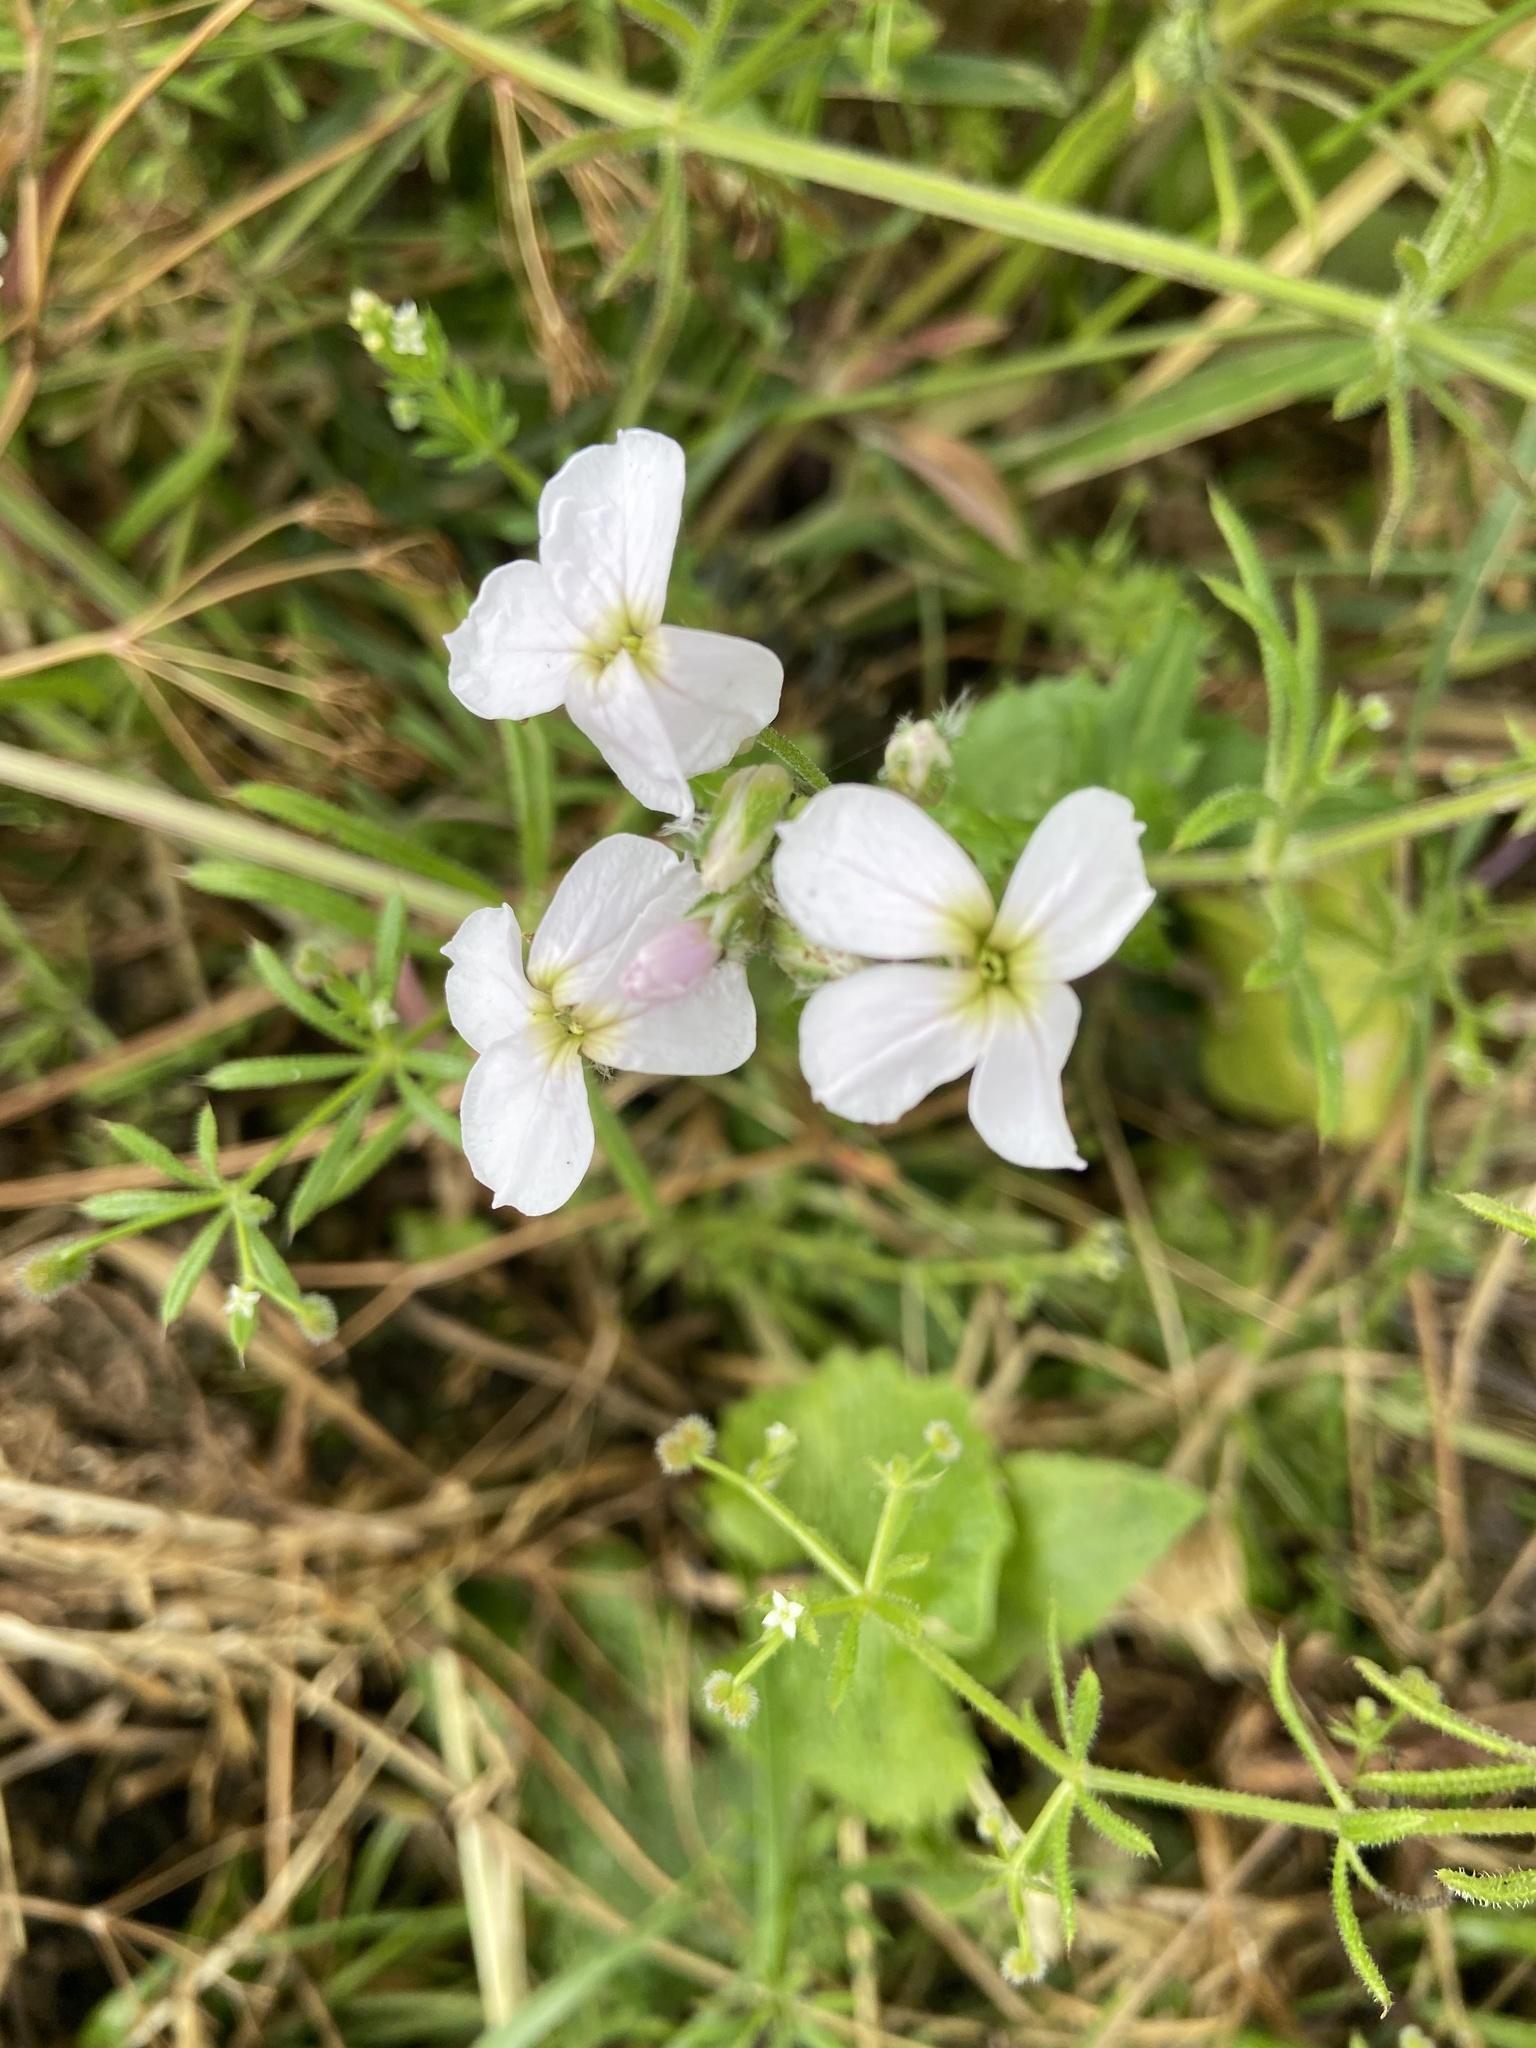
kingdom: Plantae
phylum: Tracheophyta
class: Magnoliopsida
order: Brassicales
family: Brassicaceae
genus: Cardamine
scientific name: Cardamine pratensis
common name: Cuckoo flower
